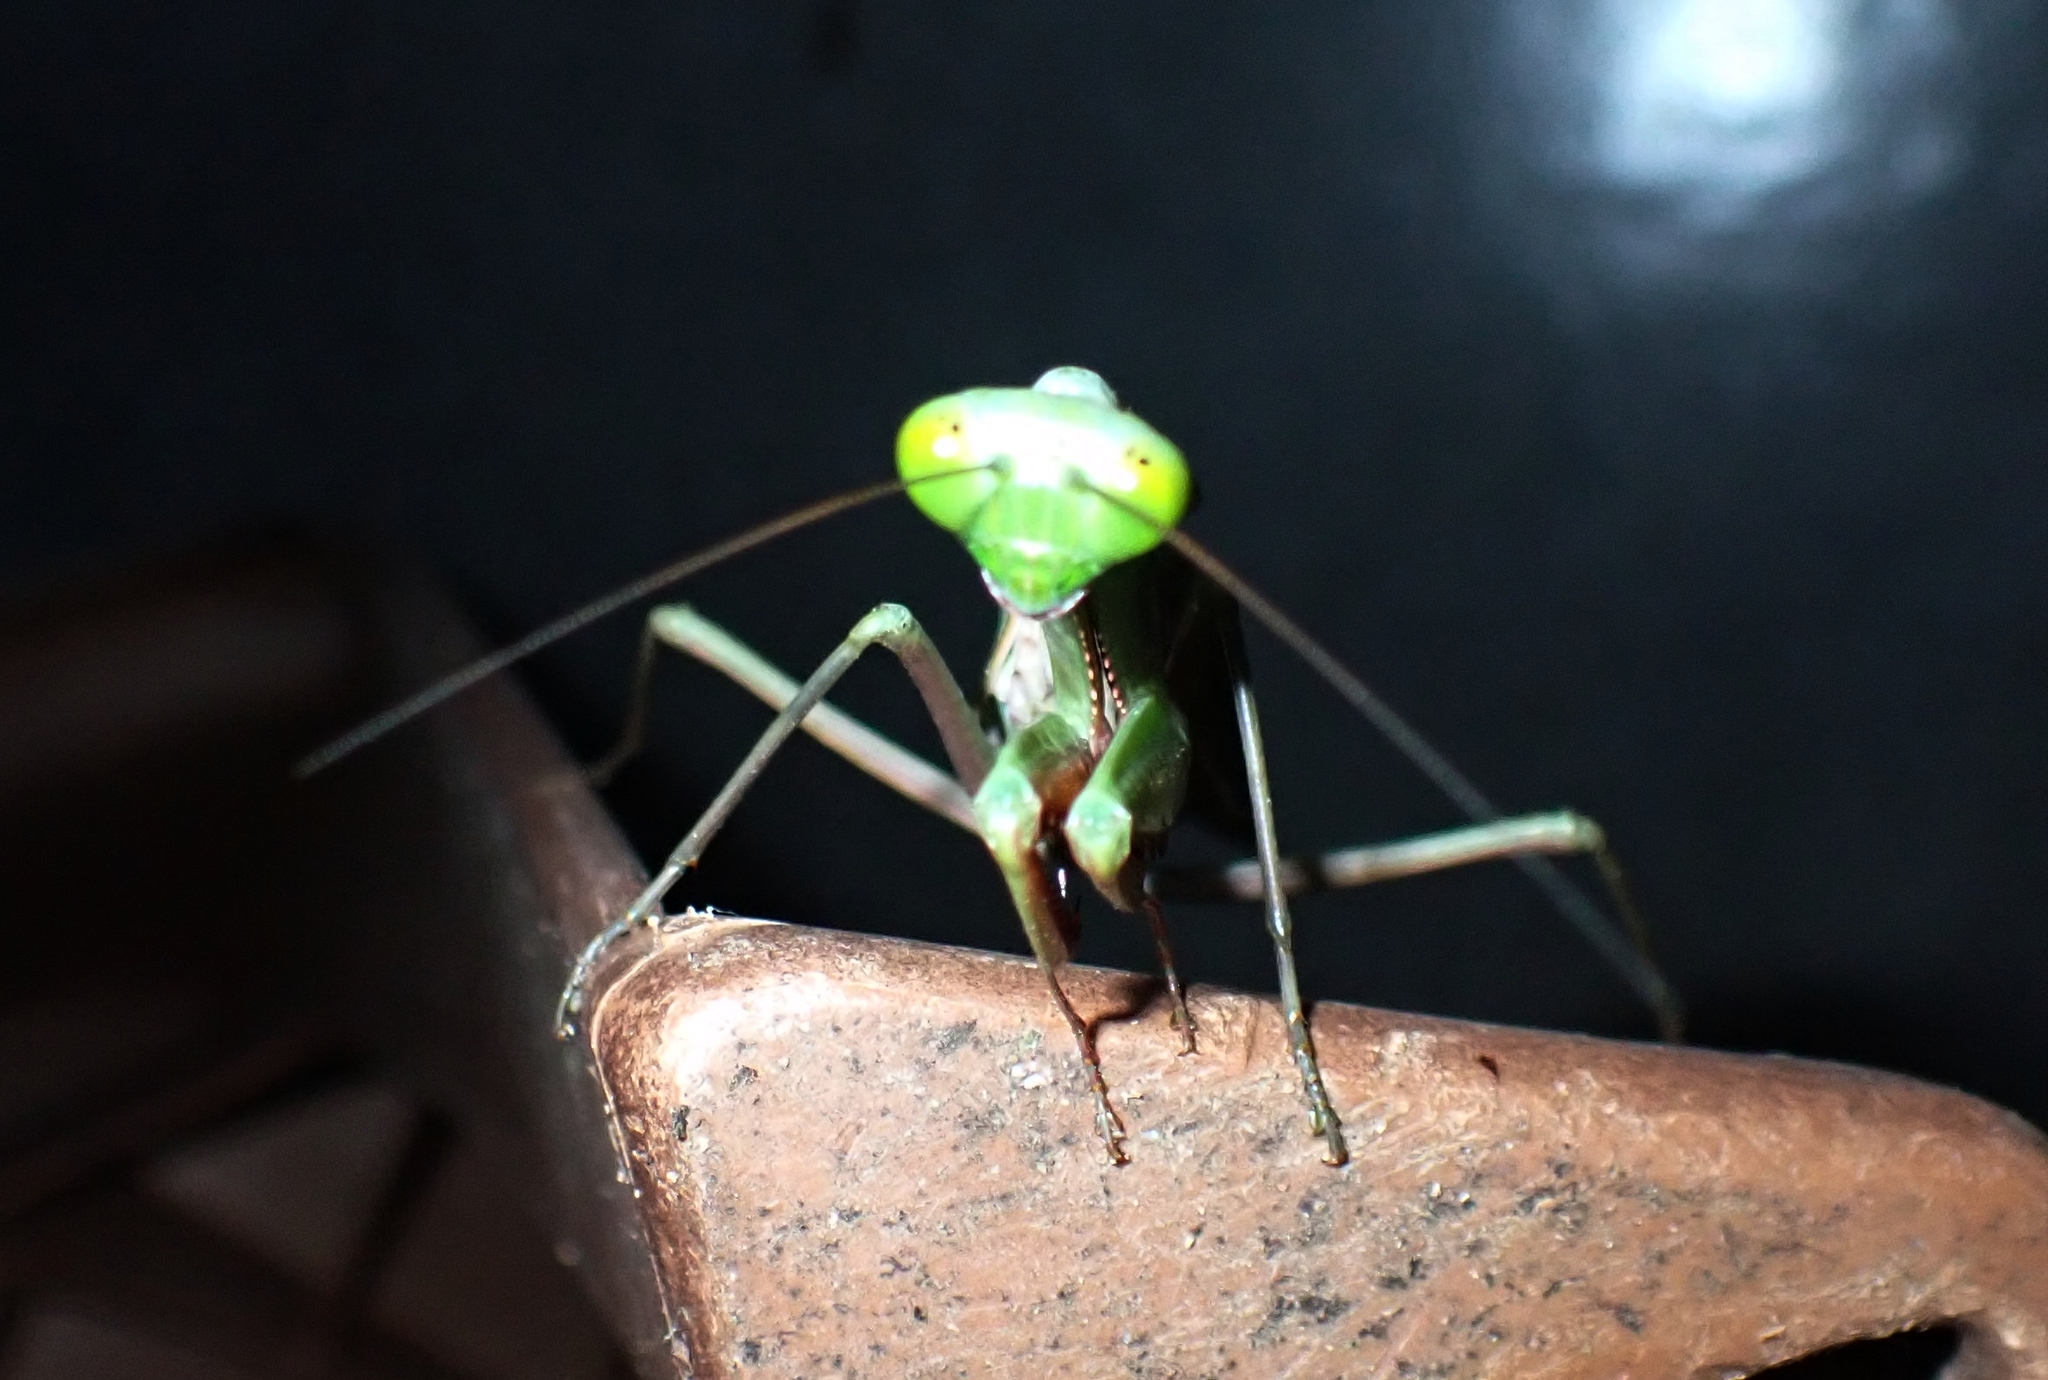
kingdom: Animalia
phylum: Arthropoda
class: Insecta
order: Mantodea
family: Mantidae
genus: Hierodula
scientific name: Hierodula majuscula
